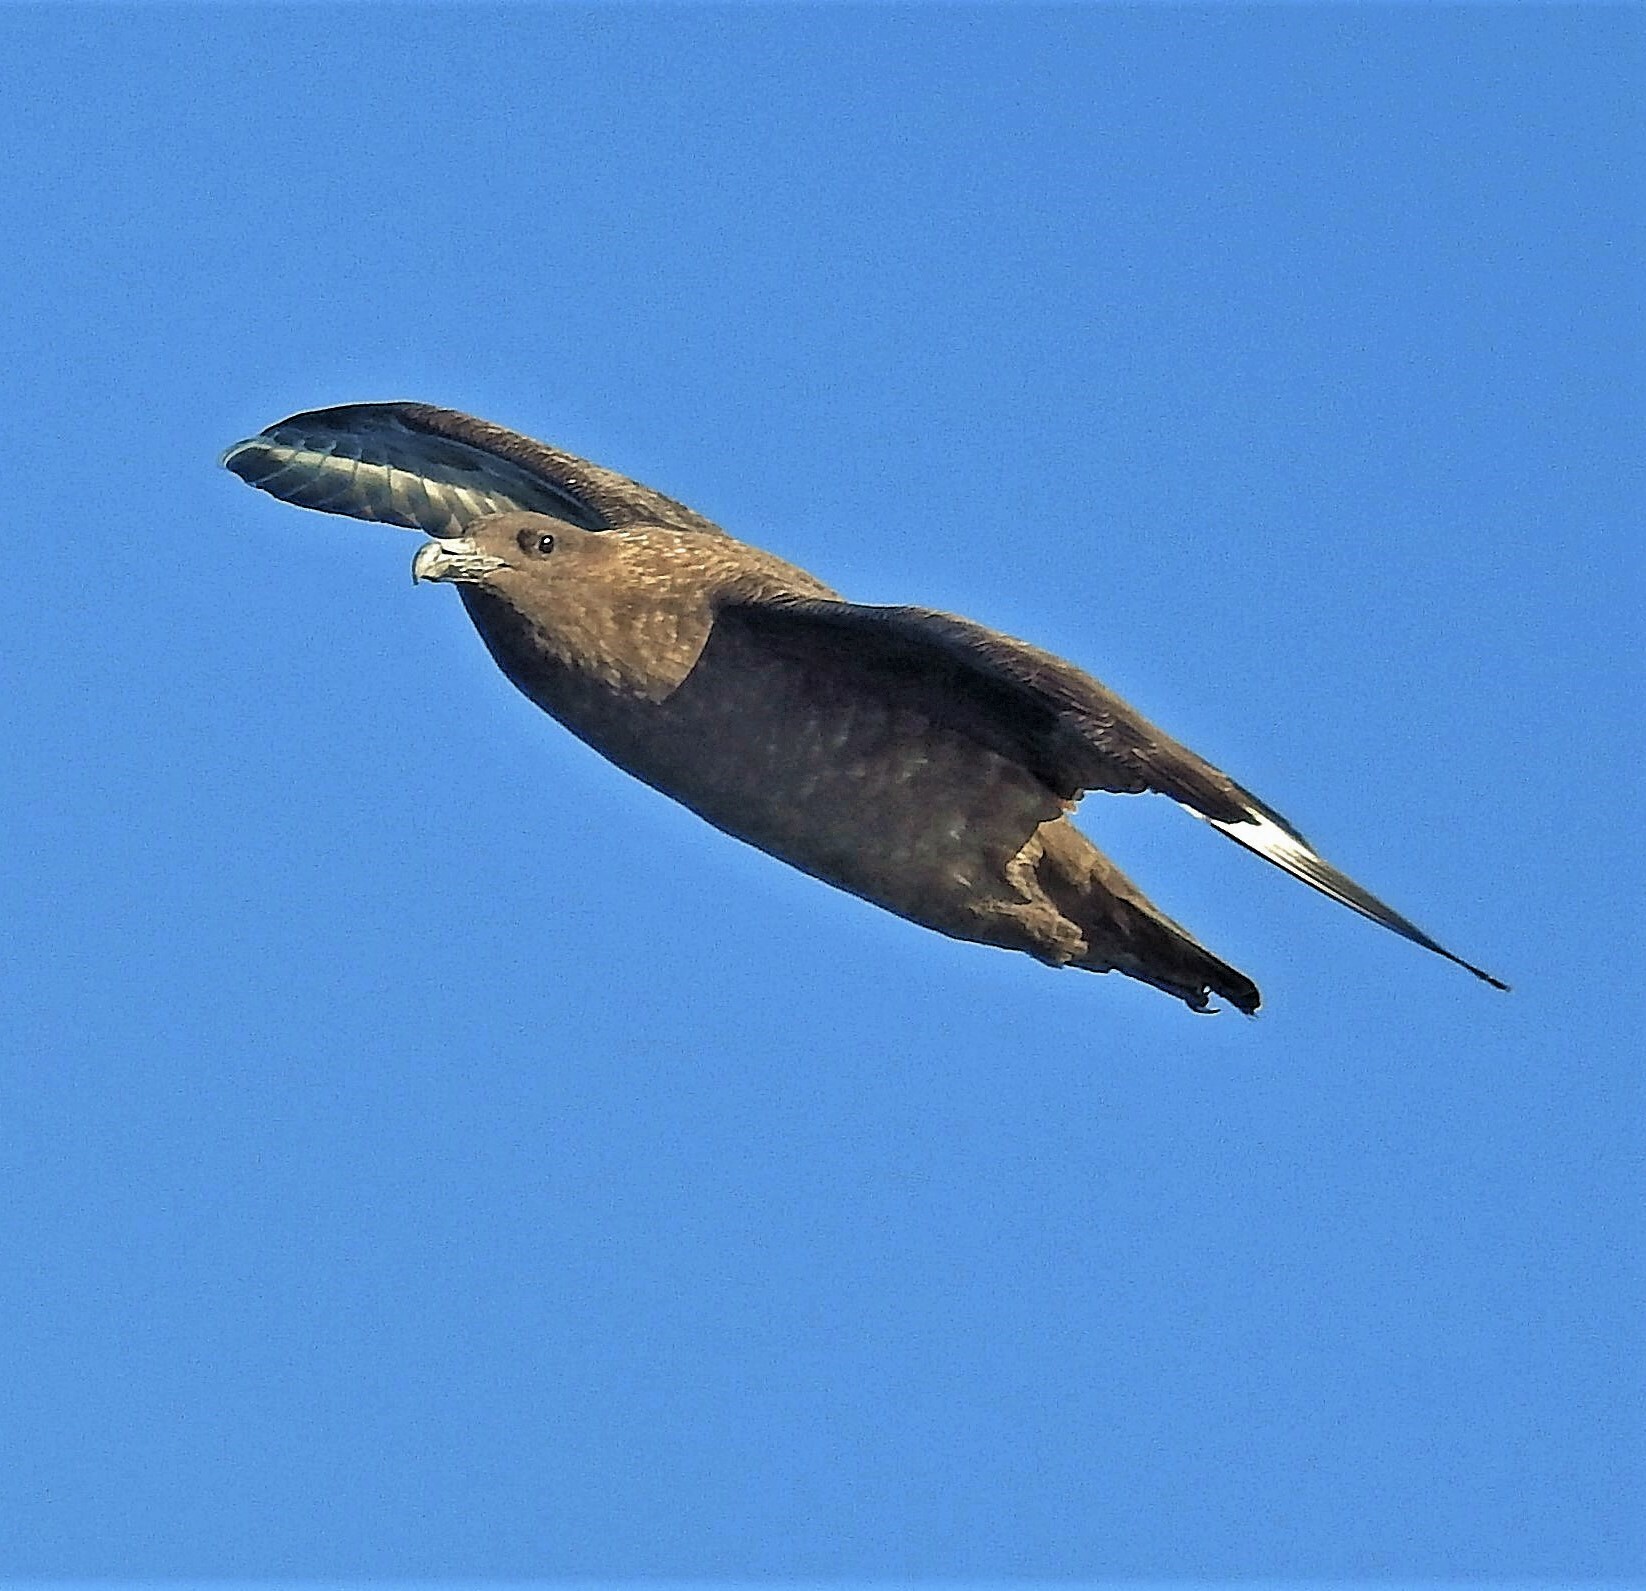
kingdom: Animalia
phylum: Chordata
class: Aves
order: Charadriiformes
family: Stercorariidae
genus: Stercorarius
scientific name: Stercorarius antarcticus
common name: Brown skua
